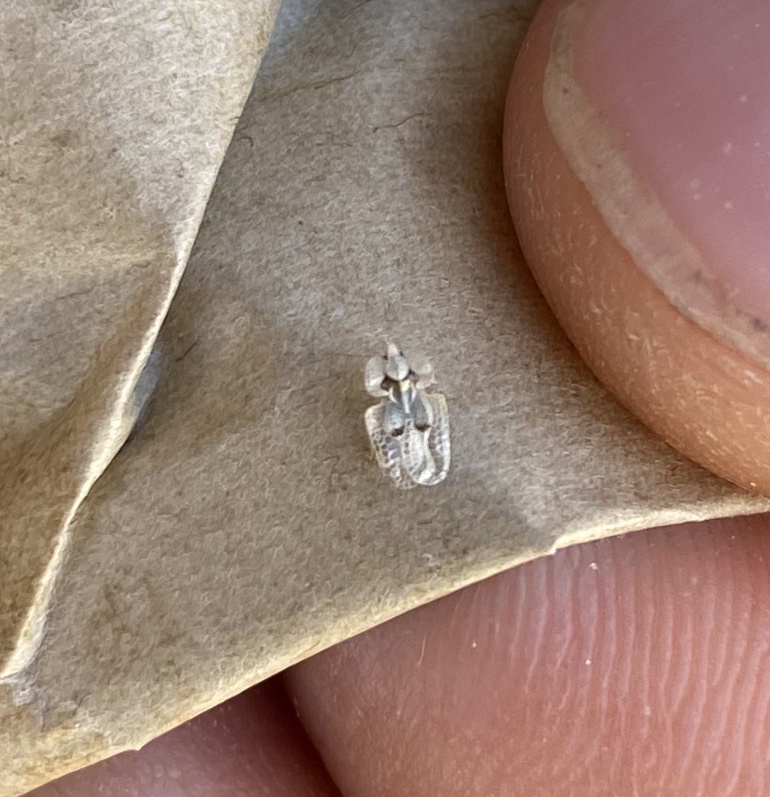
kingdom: Animalia
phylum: Arthropoda
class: Insecta
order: Hemiptera
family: Tingidae
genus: Corythucha
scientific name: Corythucha ciliata
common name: Sycamore lace bug
